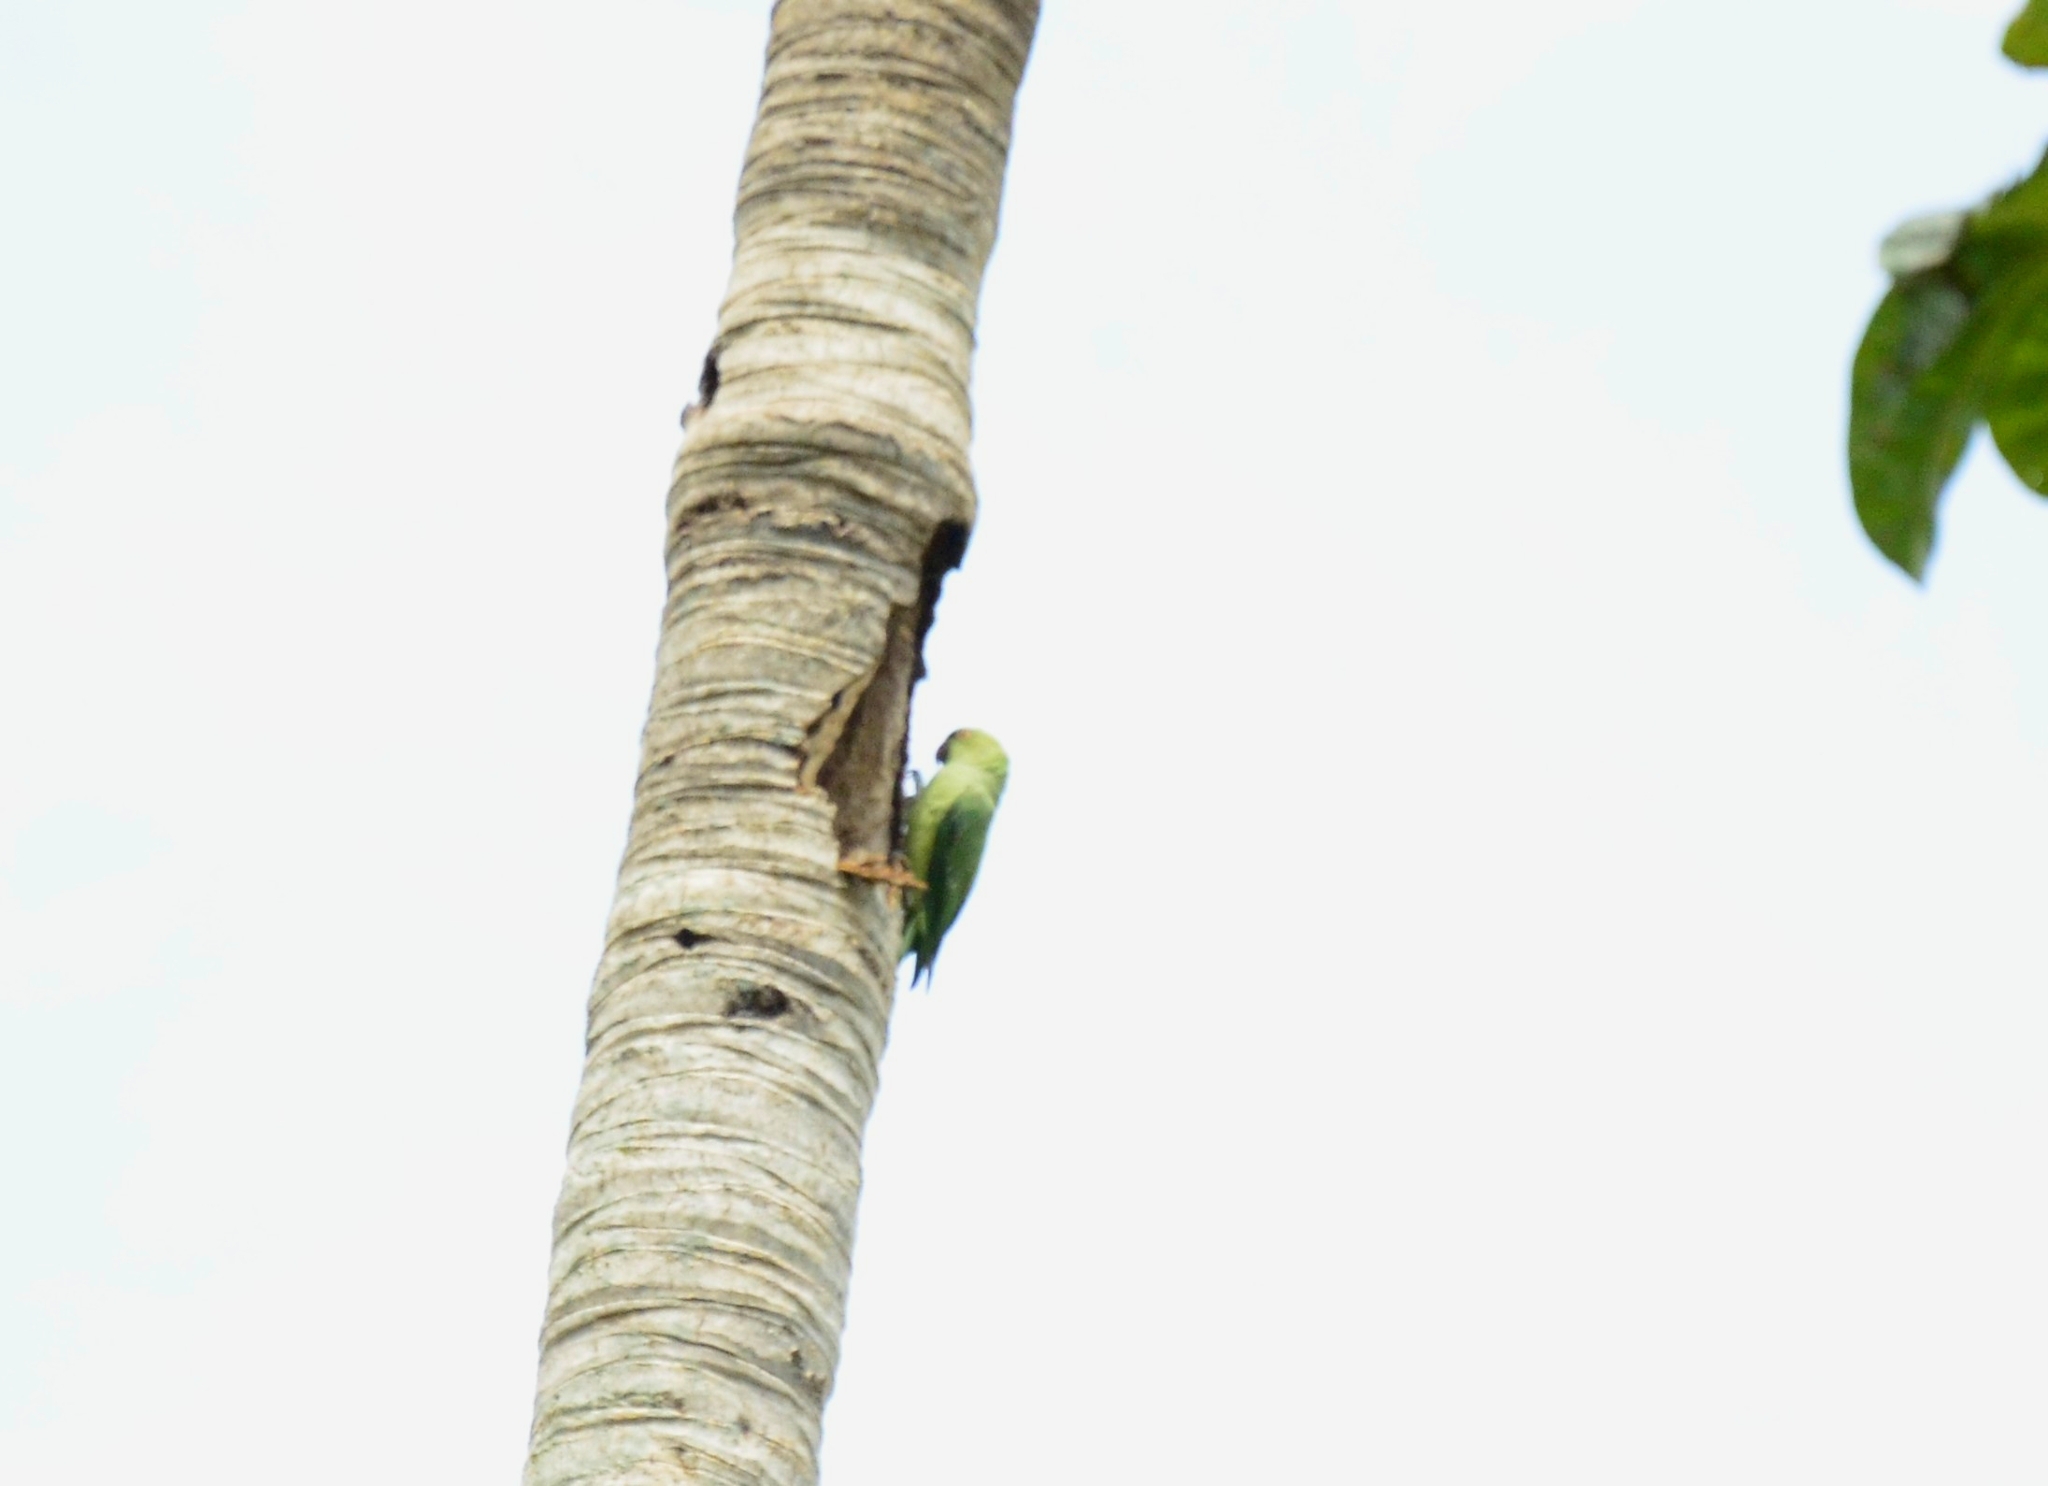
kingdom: Animalia
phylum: Chordata
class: Aves
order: Psittaciformes
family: Psittacidae
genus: Psittacula
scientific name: Psittacula krameri
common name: Rose-ringed parakeet
